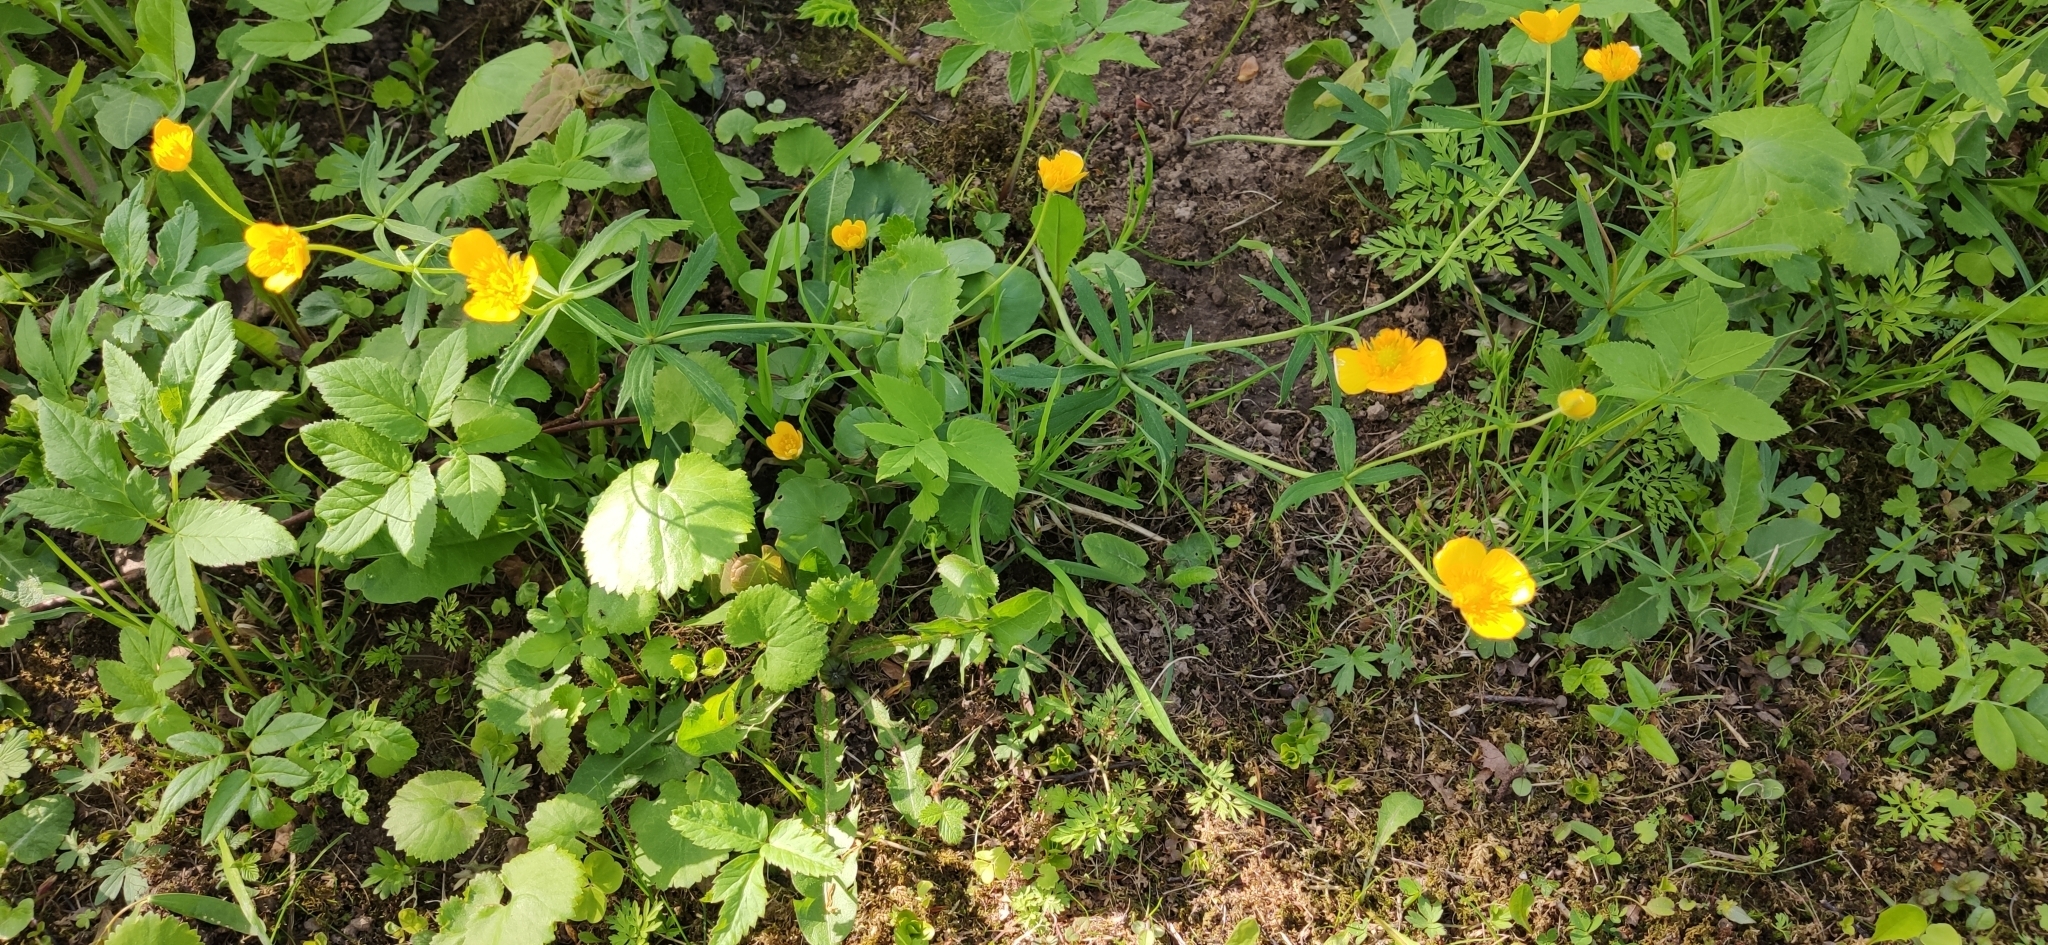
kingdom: Plantae
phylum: Tracheophyta
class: Magnoliopsida
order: Ranunculales
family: Ranunculaceae
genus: Ranunculus
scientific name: Ranunculus cassubicus
